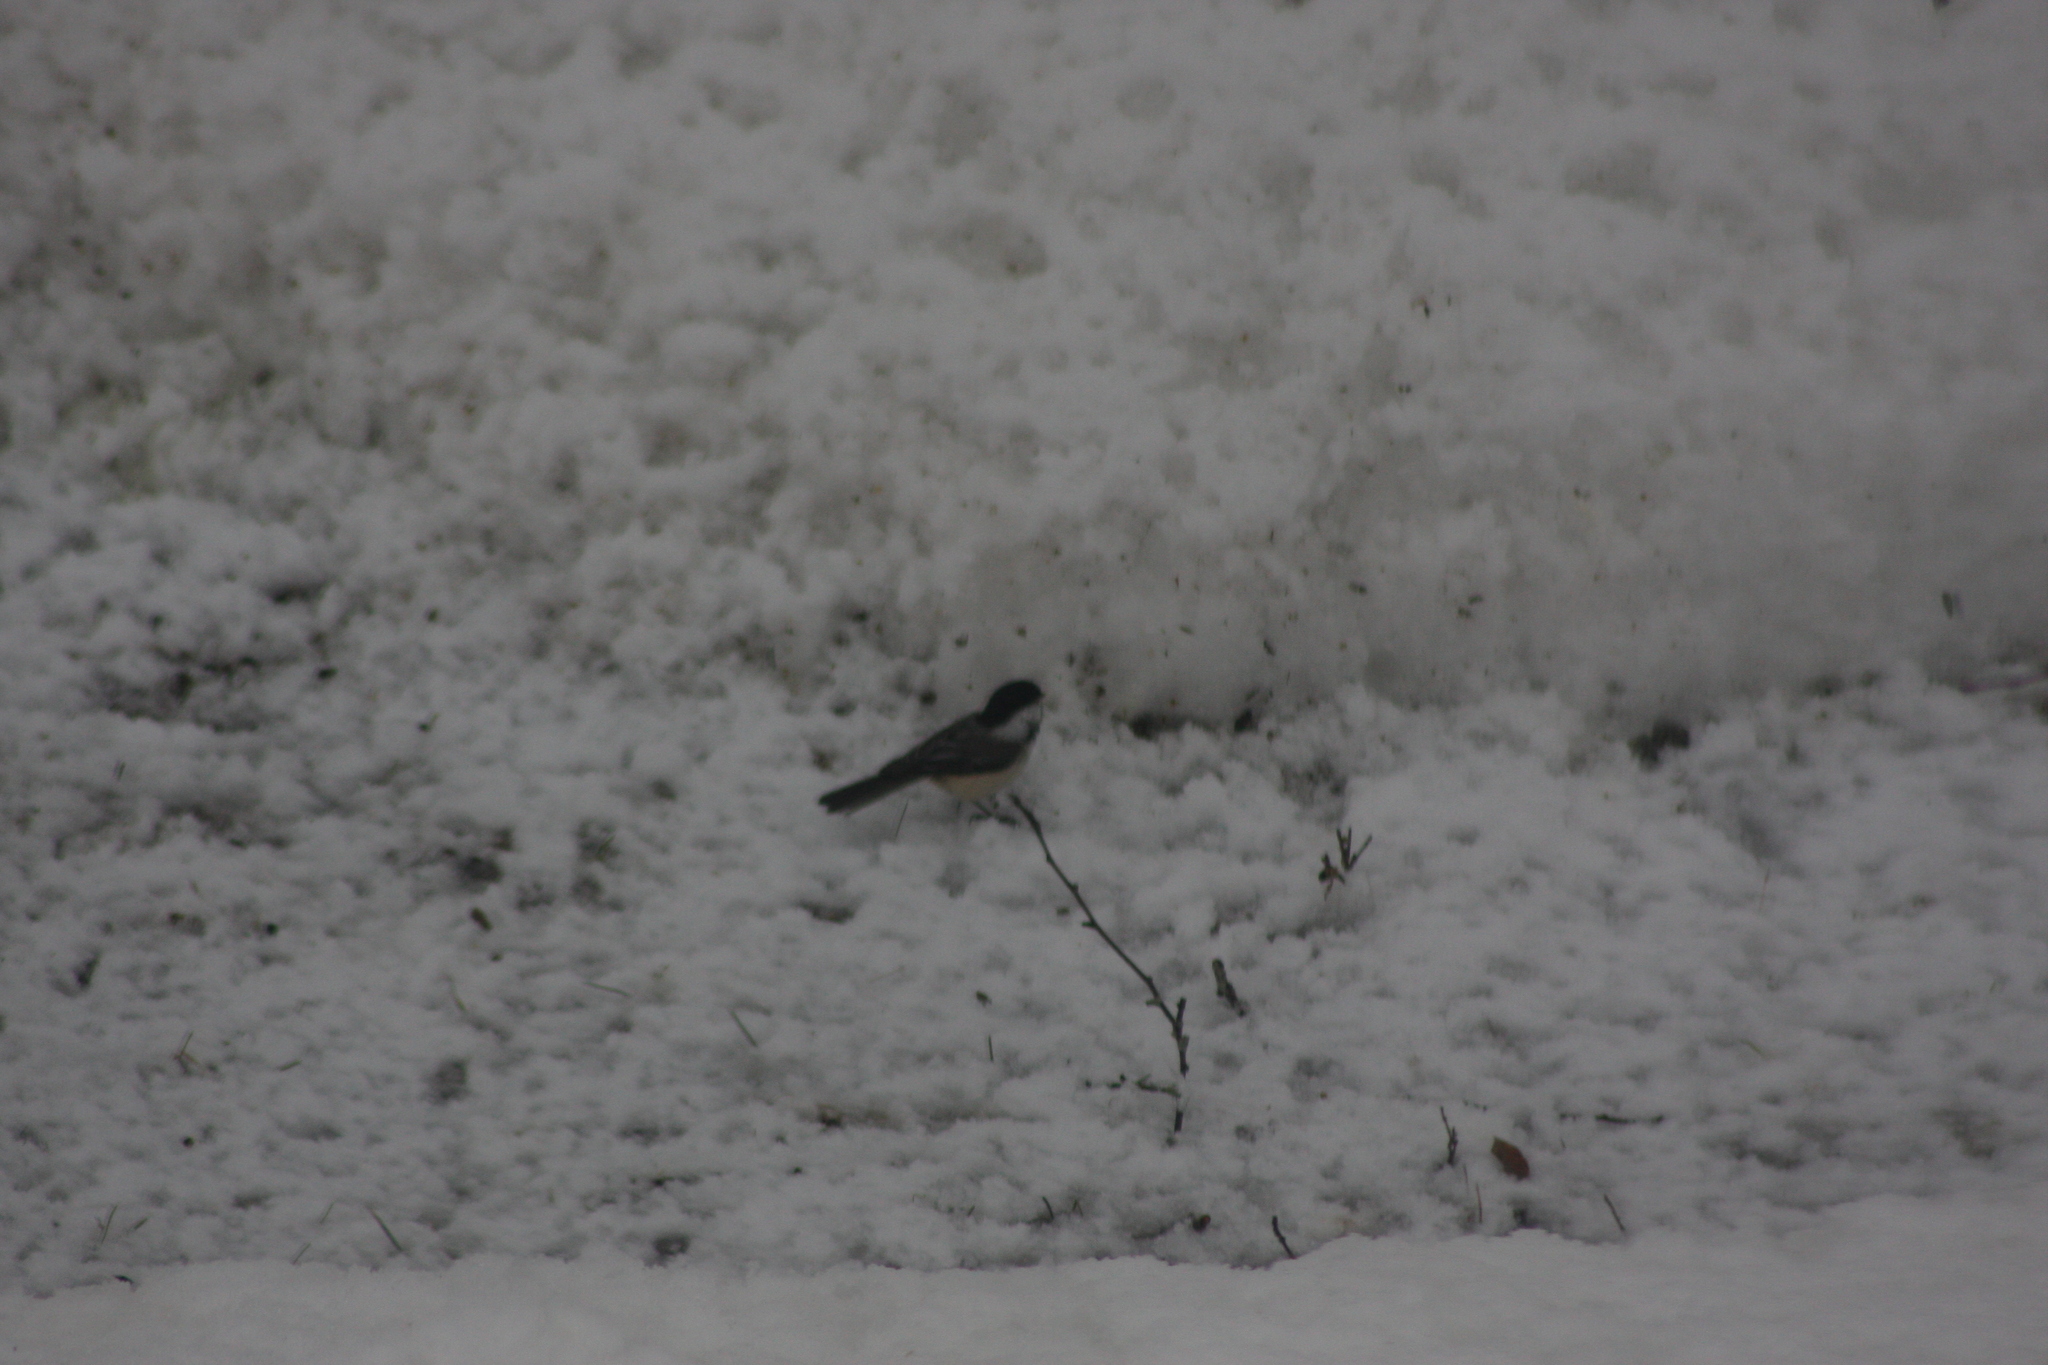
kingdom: Animalia
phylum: Chordata
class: Aves
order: Passeriformes
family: Paridae
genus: Poecile
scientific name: Poecile atricapillus
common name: Black-capped chickadee
